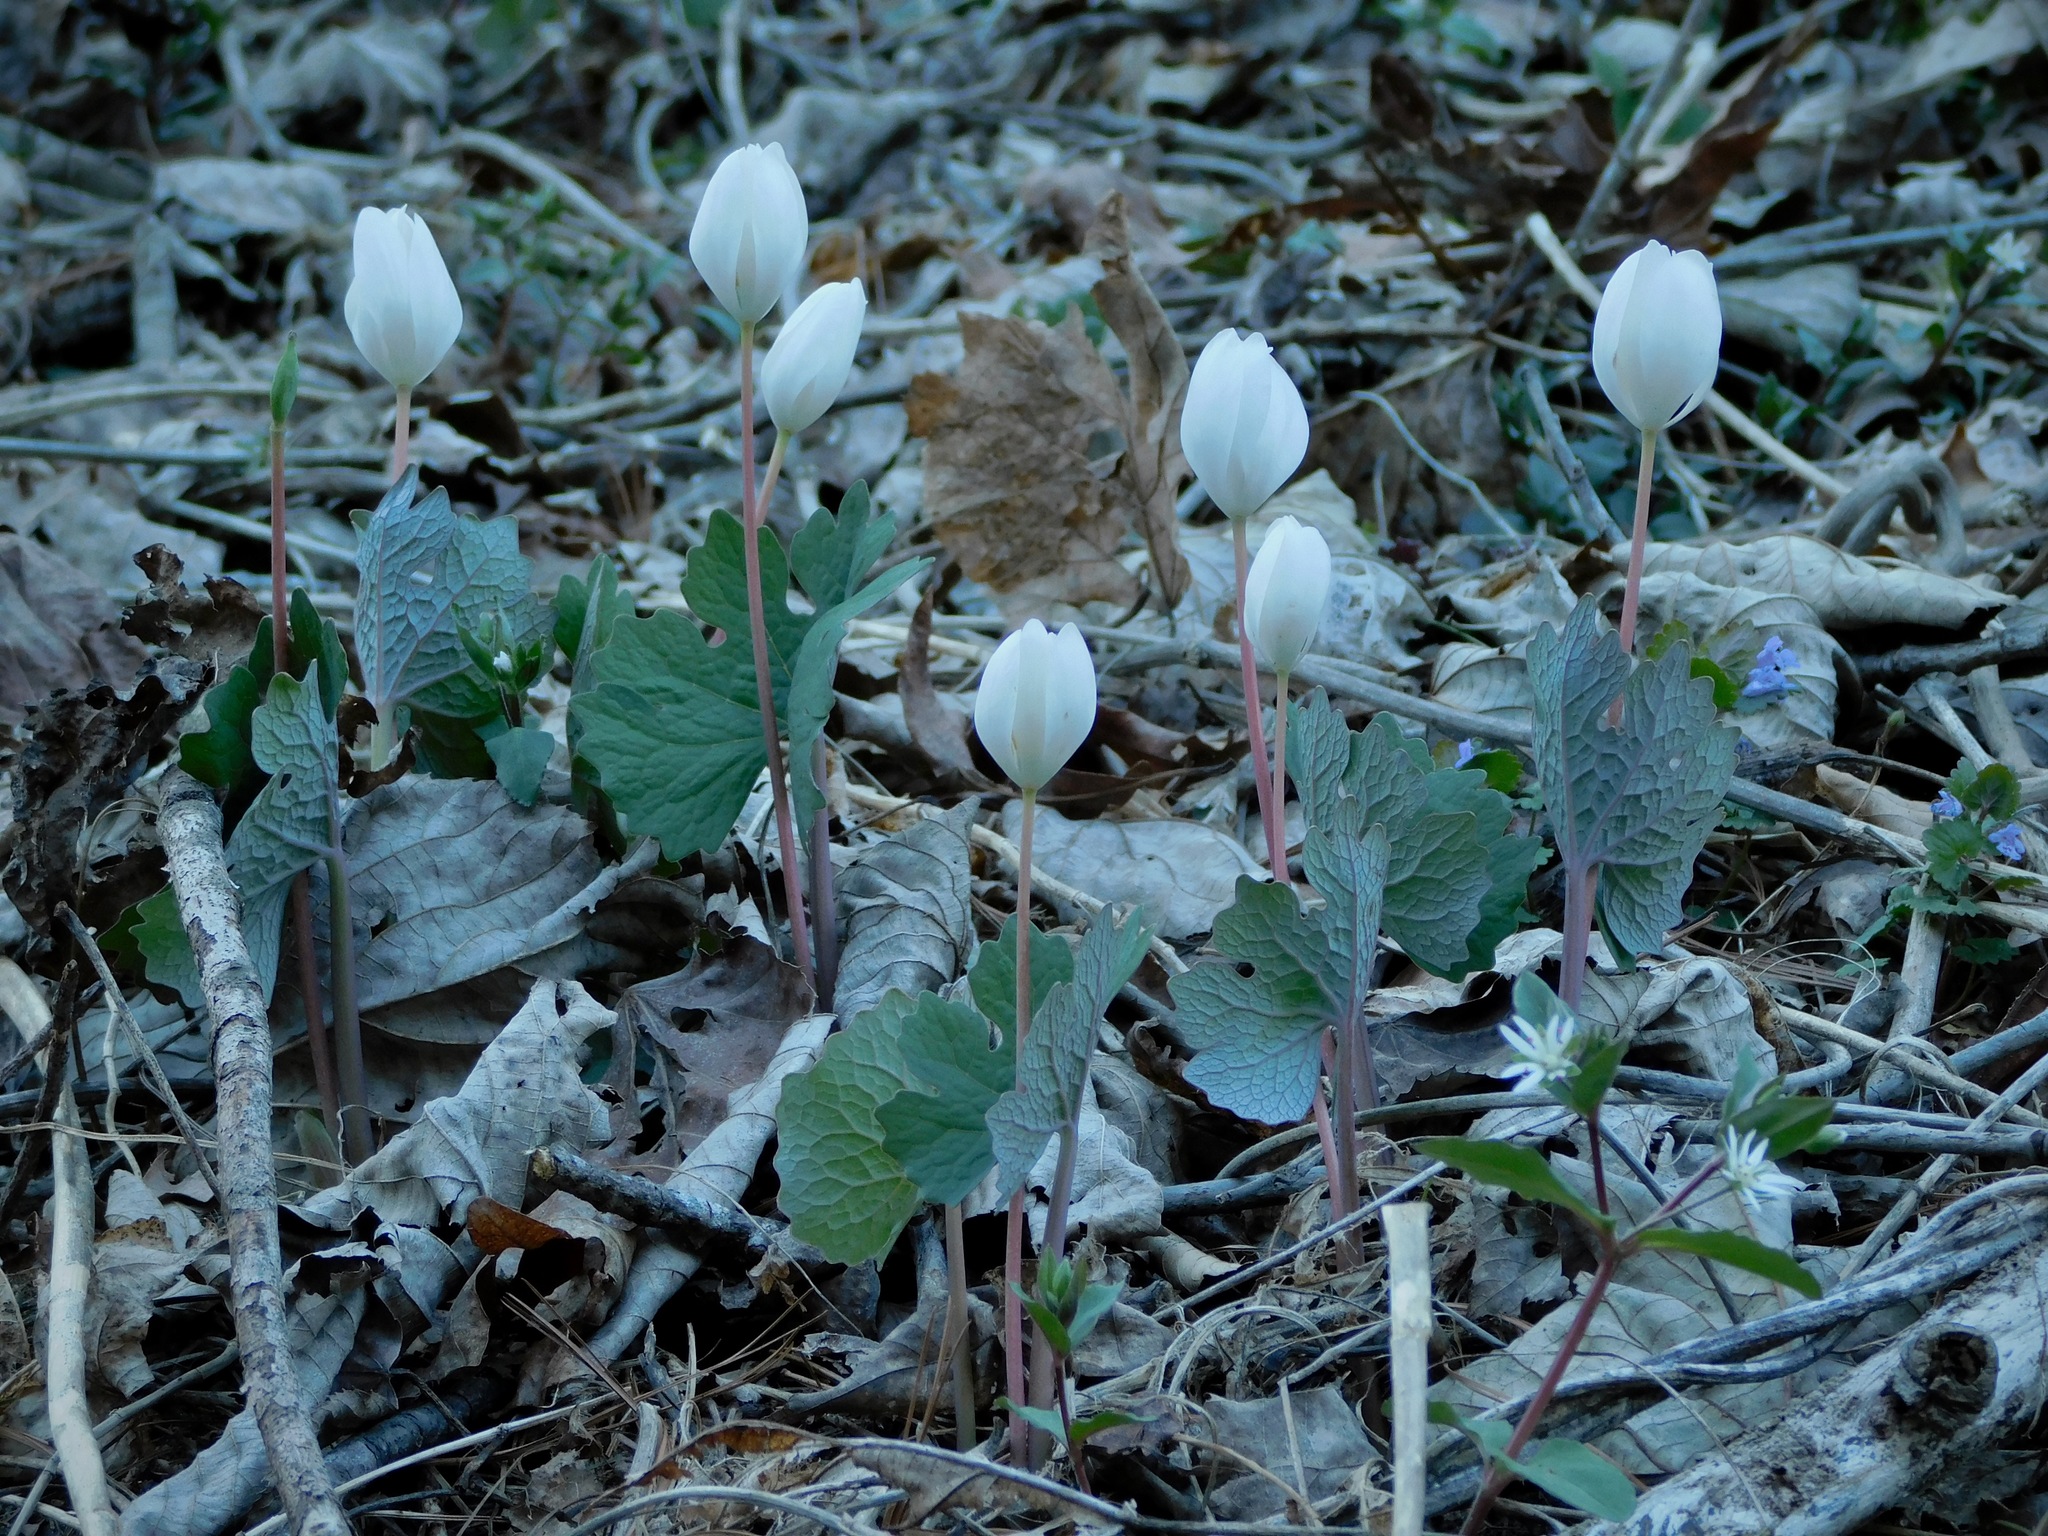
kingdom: Plantae
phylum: Tracheophyta
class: Magnoliopsida
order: Ranunculales
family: Papaveraceae
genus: Sanguinaria
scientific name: Sanguinaria canadensis
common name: Bloodroot
